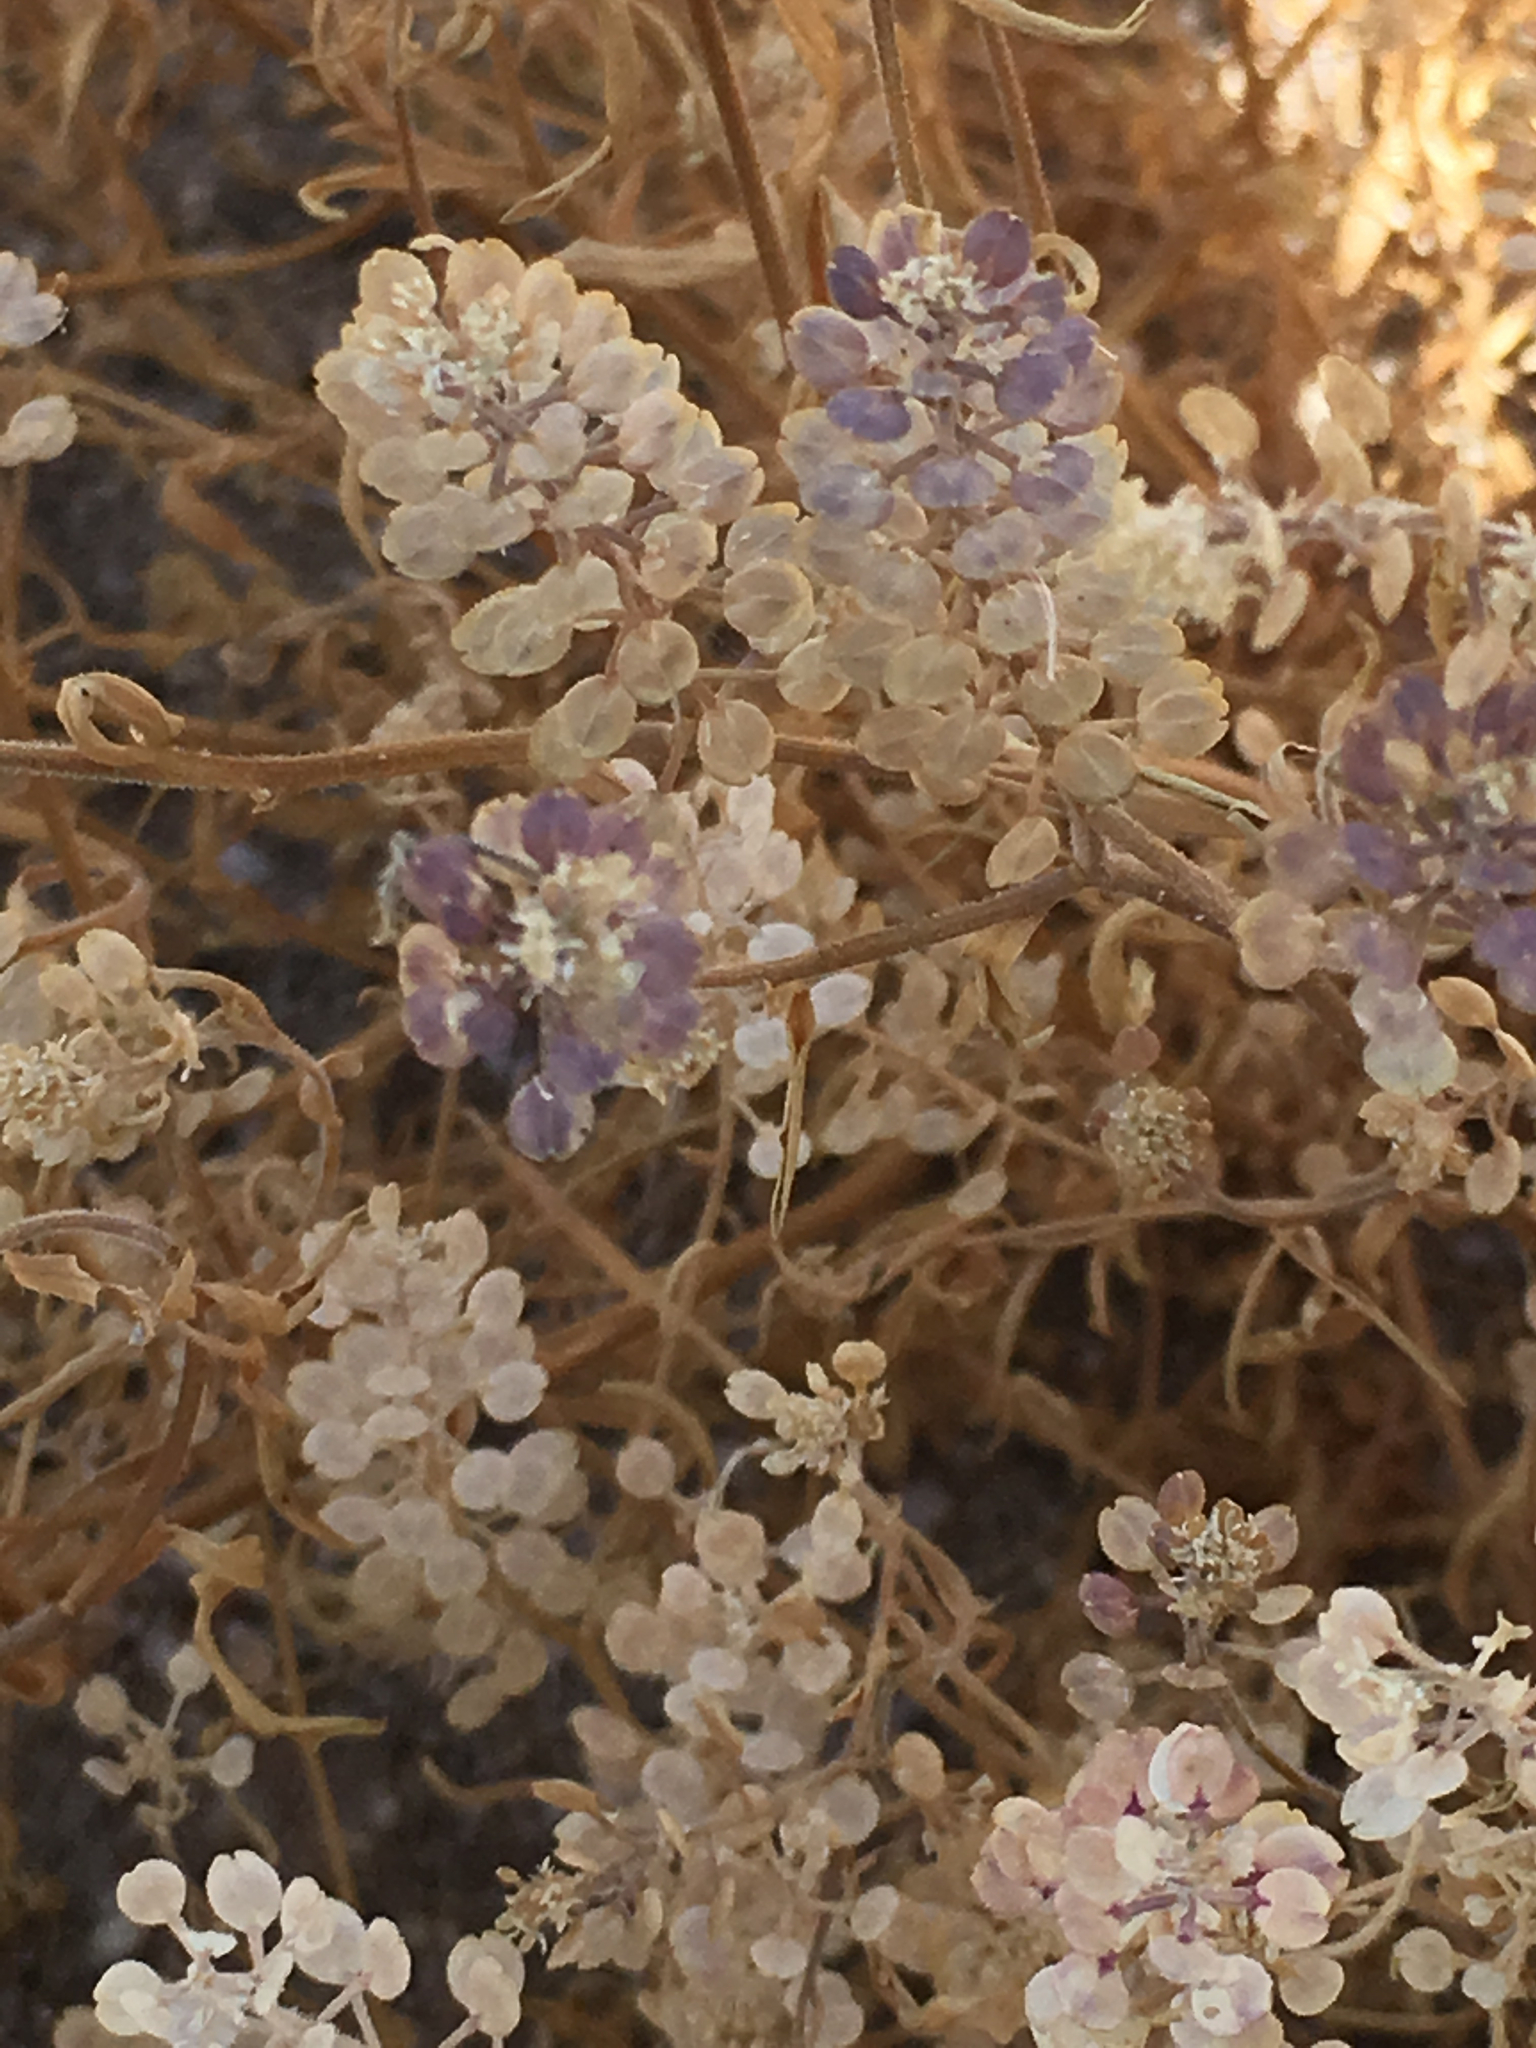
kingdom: Plantae
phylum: Tracheophyta
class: Magnoliopsida
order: Brassicales
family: Brassicaceae
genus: Lepidium
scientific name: Lepidium lasiocarpum
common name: Hairy-pod pepperwort
